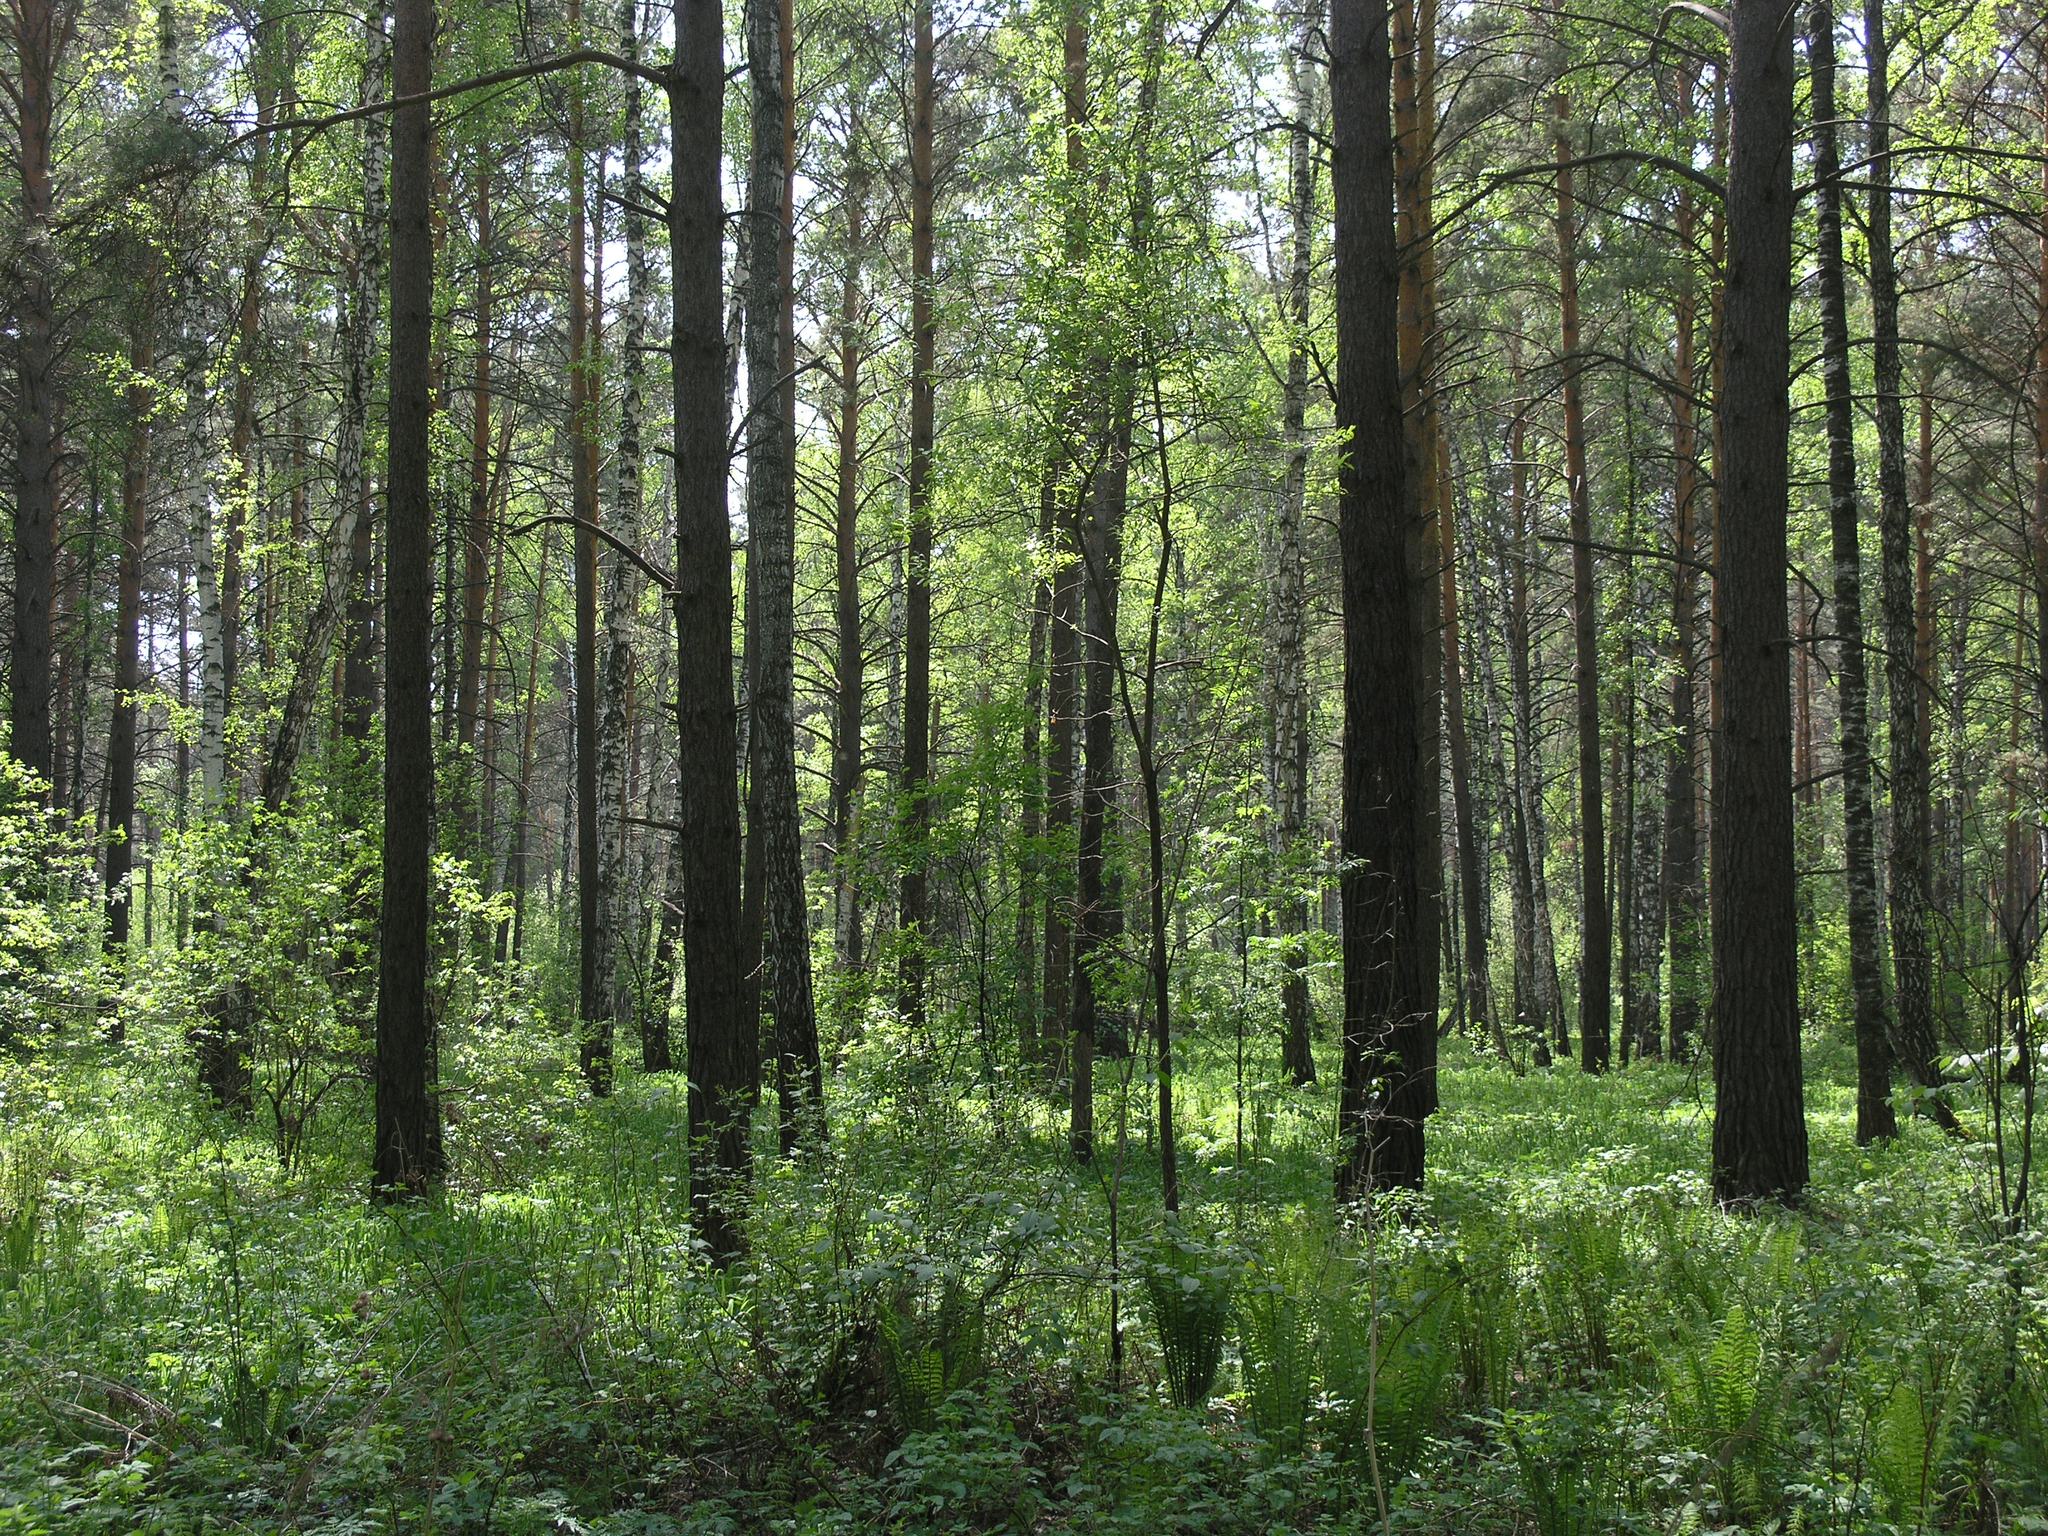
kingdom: Plantae
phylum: Tracheophyta
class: Pinopsida
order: Pinales
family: Pinaceae
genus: Pinus
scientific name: Pinus sylvestris
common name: Scots pine
